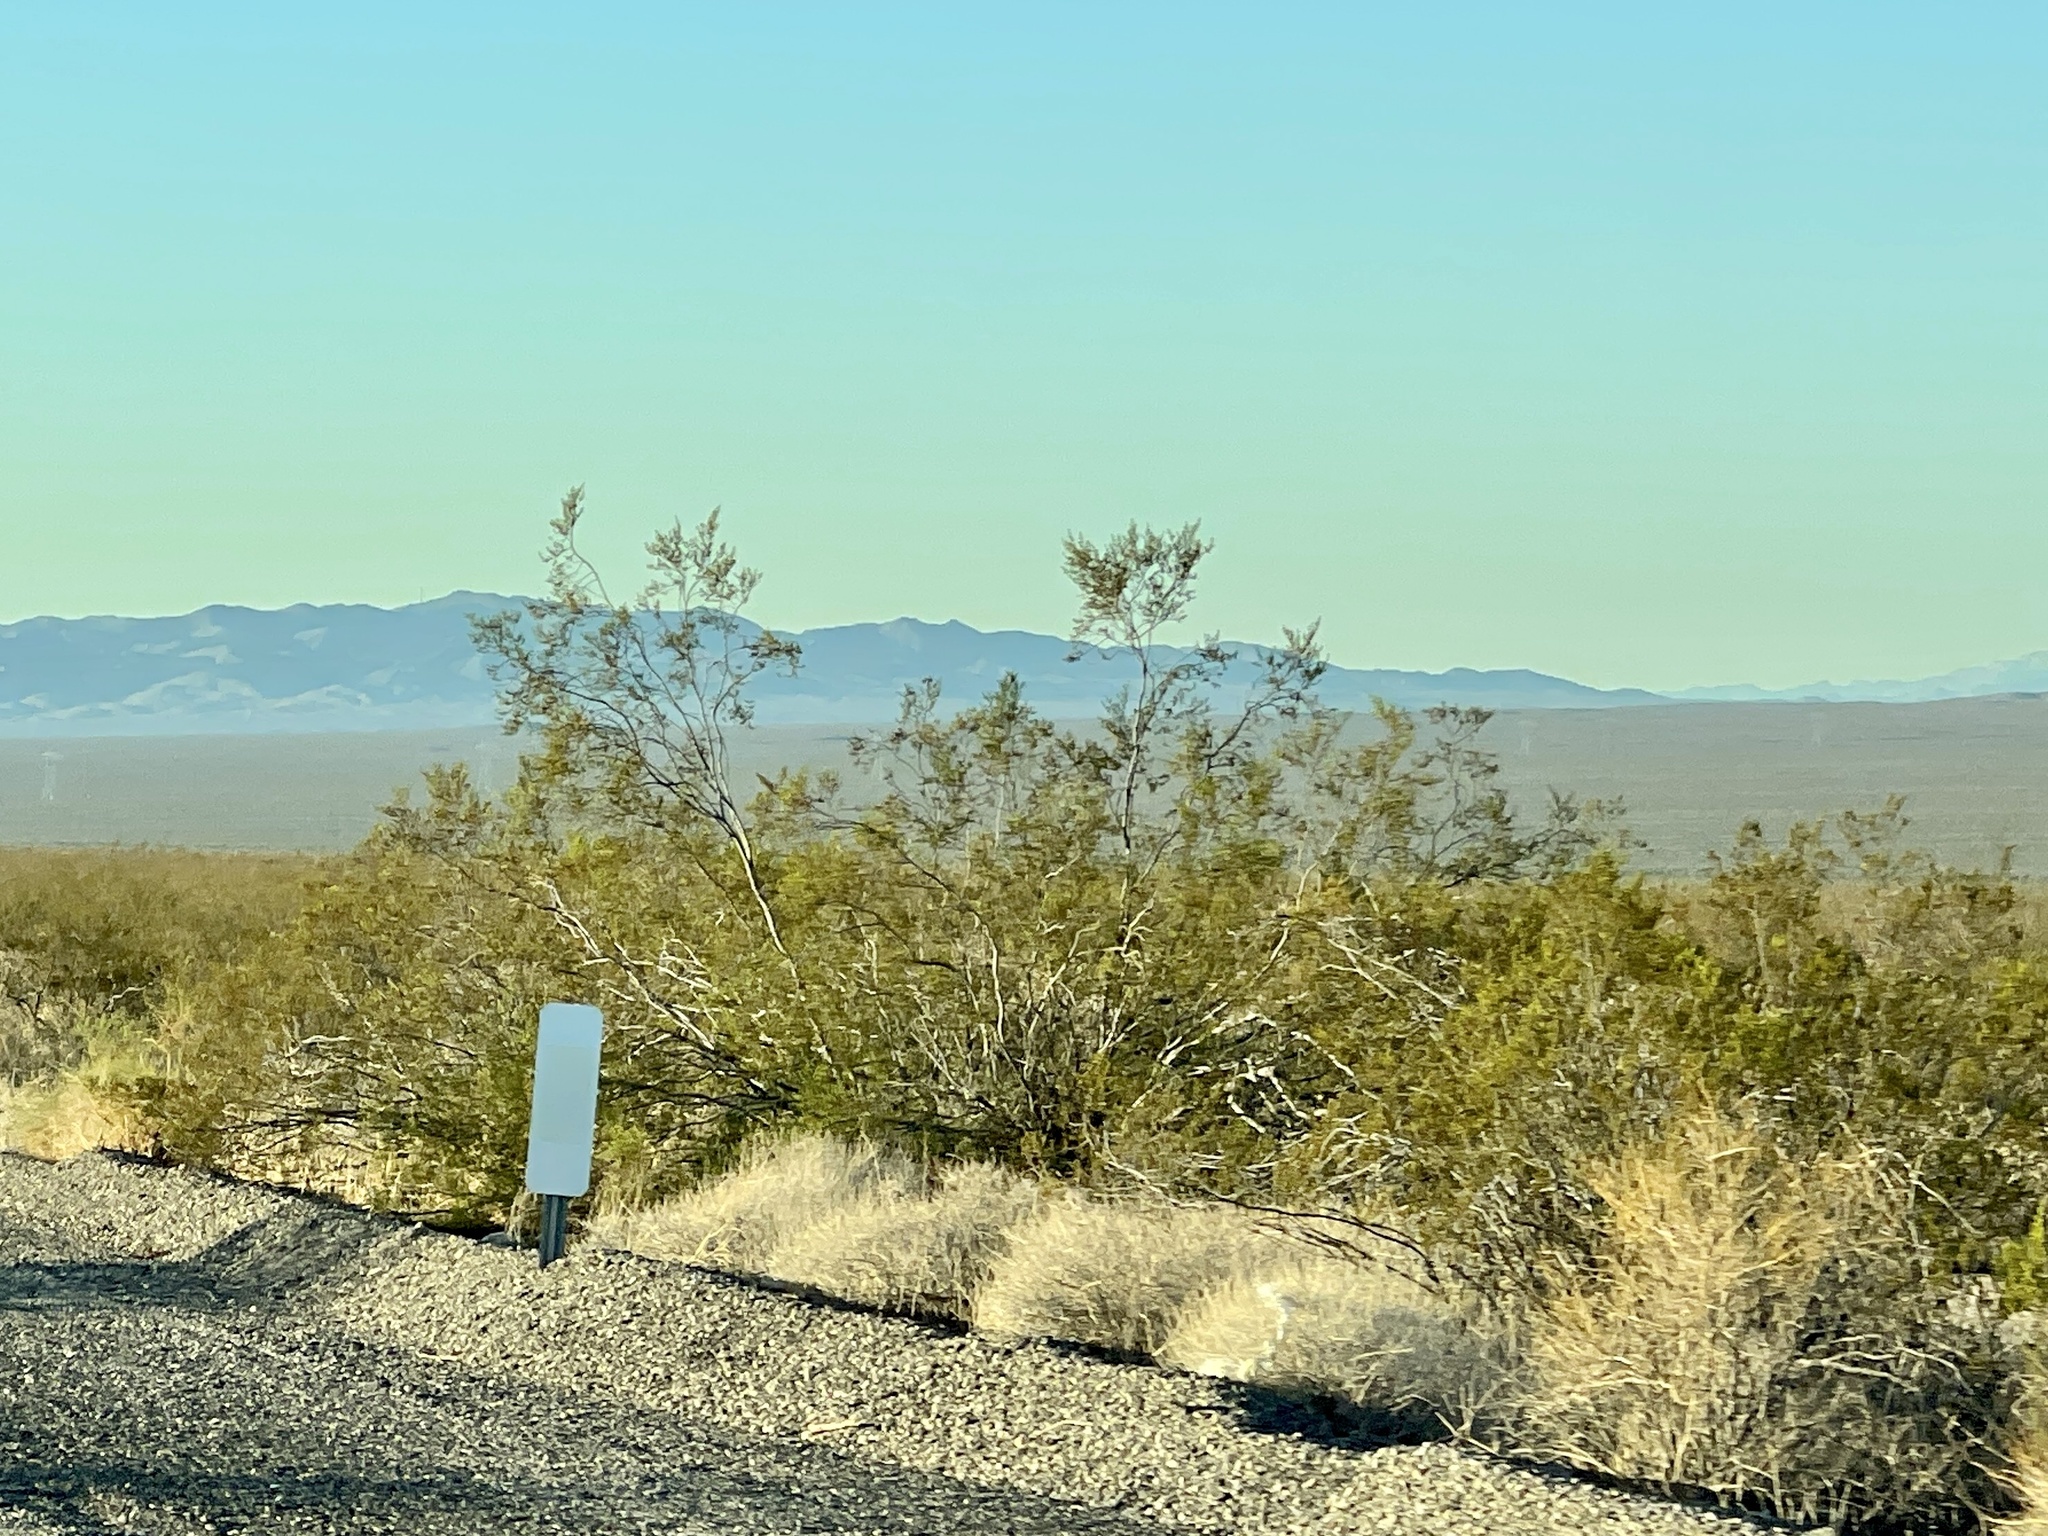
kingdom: Plantae
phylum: Tracheophyta
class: Magnoliopsida
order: Zygophyllales
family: Zygophyllaceae
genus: Larrea
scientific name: Larrea tridentata
